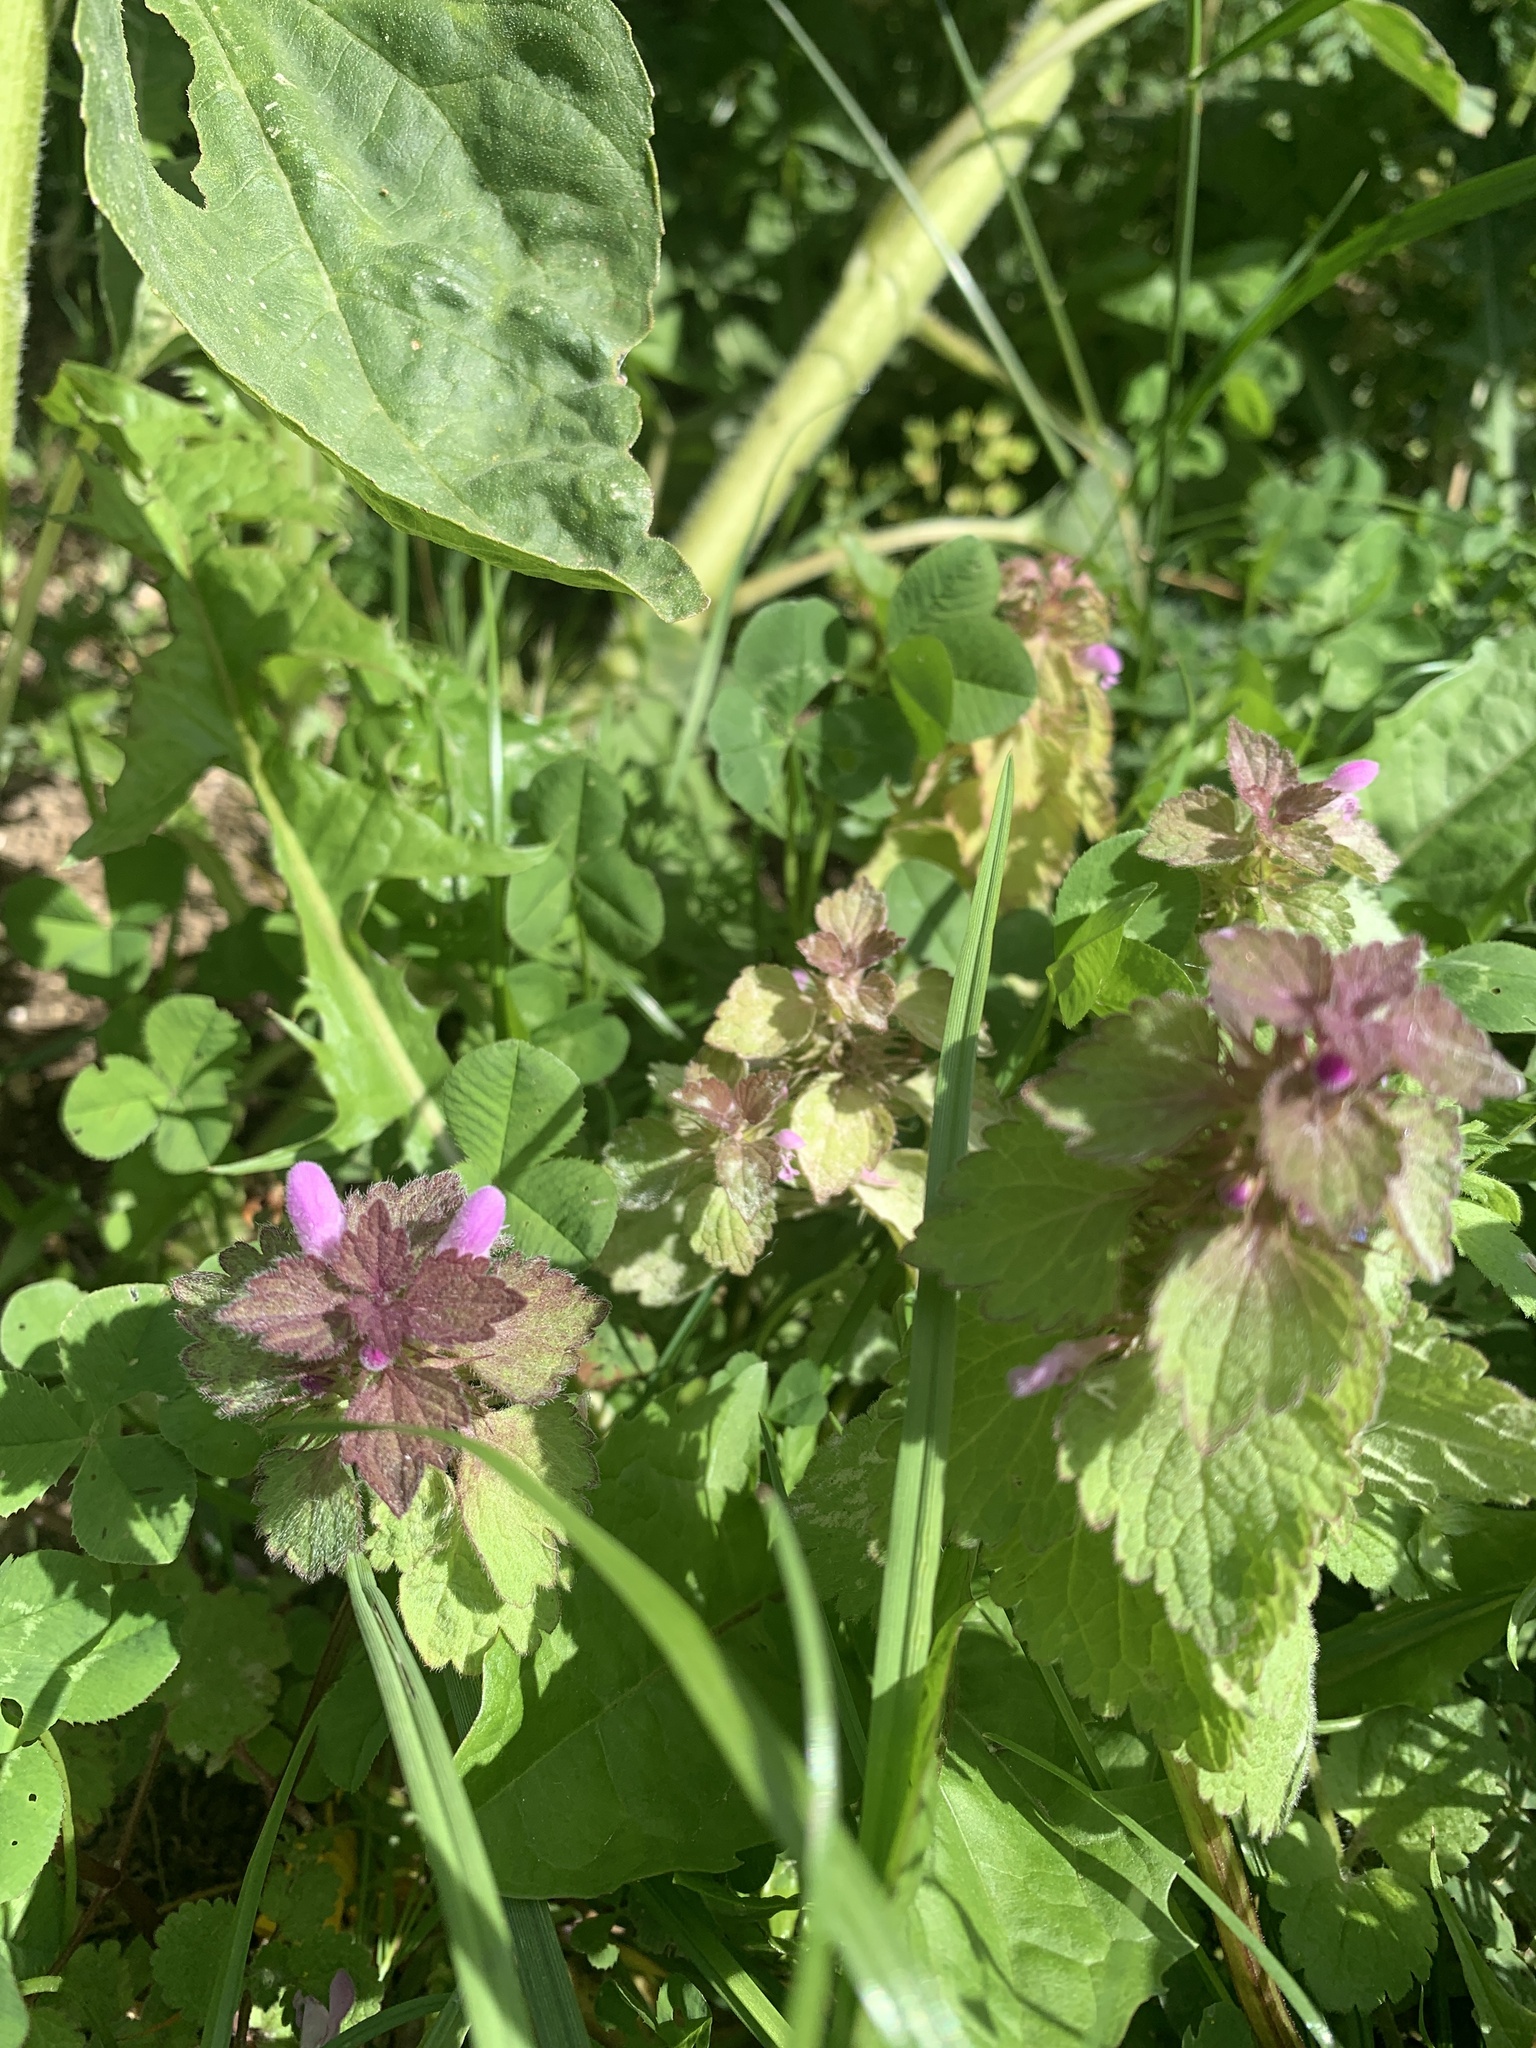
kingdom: Plantae
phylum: Tracheophyta
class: Magnoliopsida
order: Lamiales
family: Lamiaceae
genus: Lamium
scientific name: Lamium purpureum
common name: Red dead-nettle
